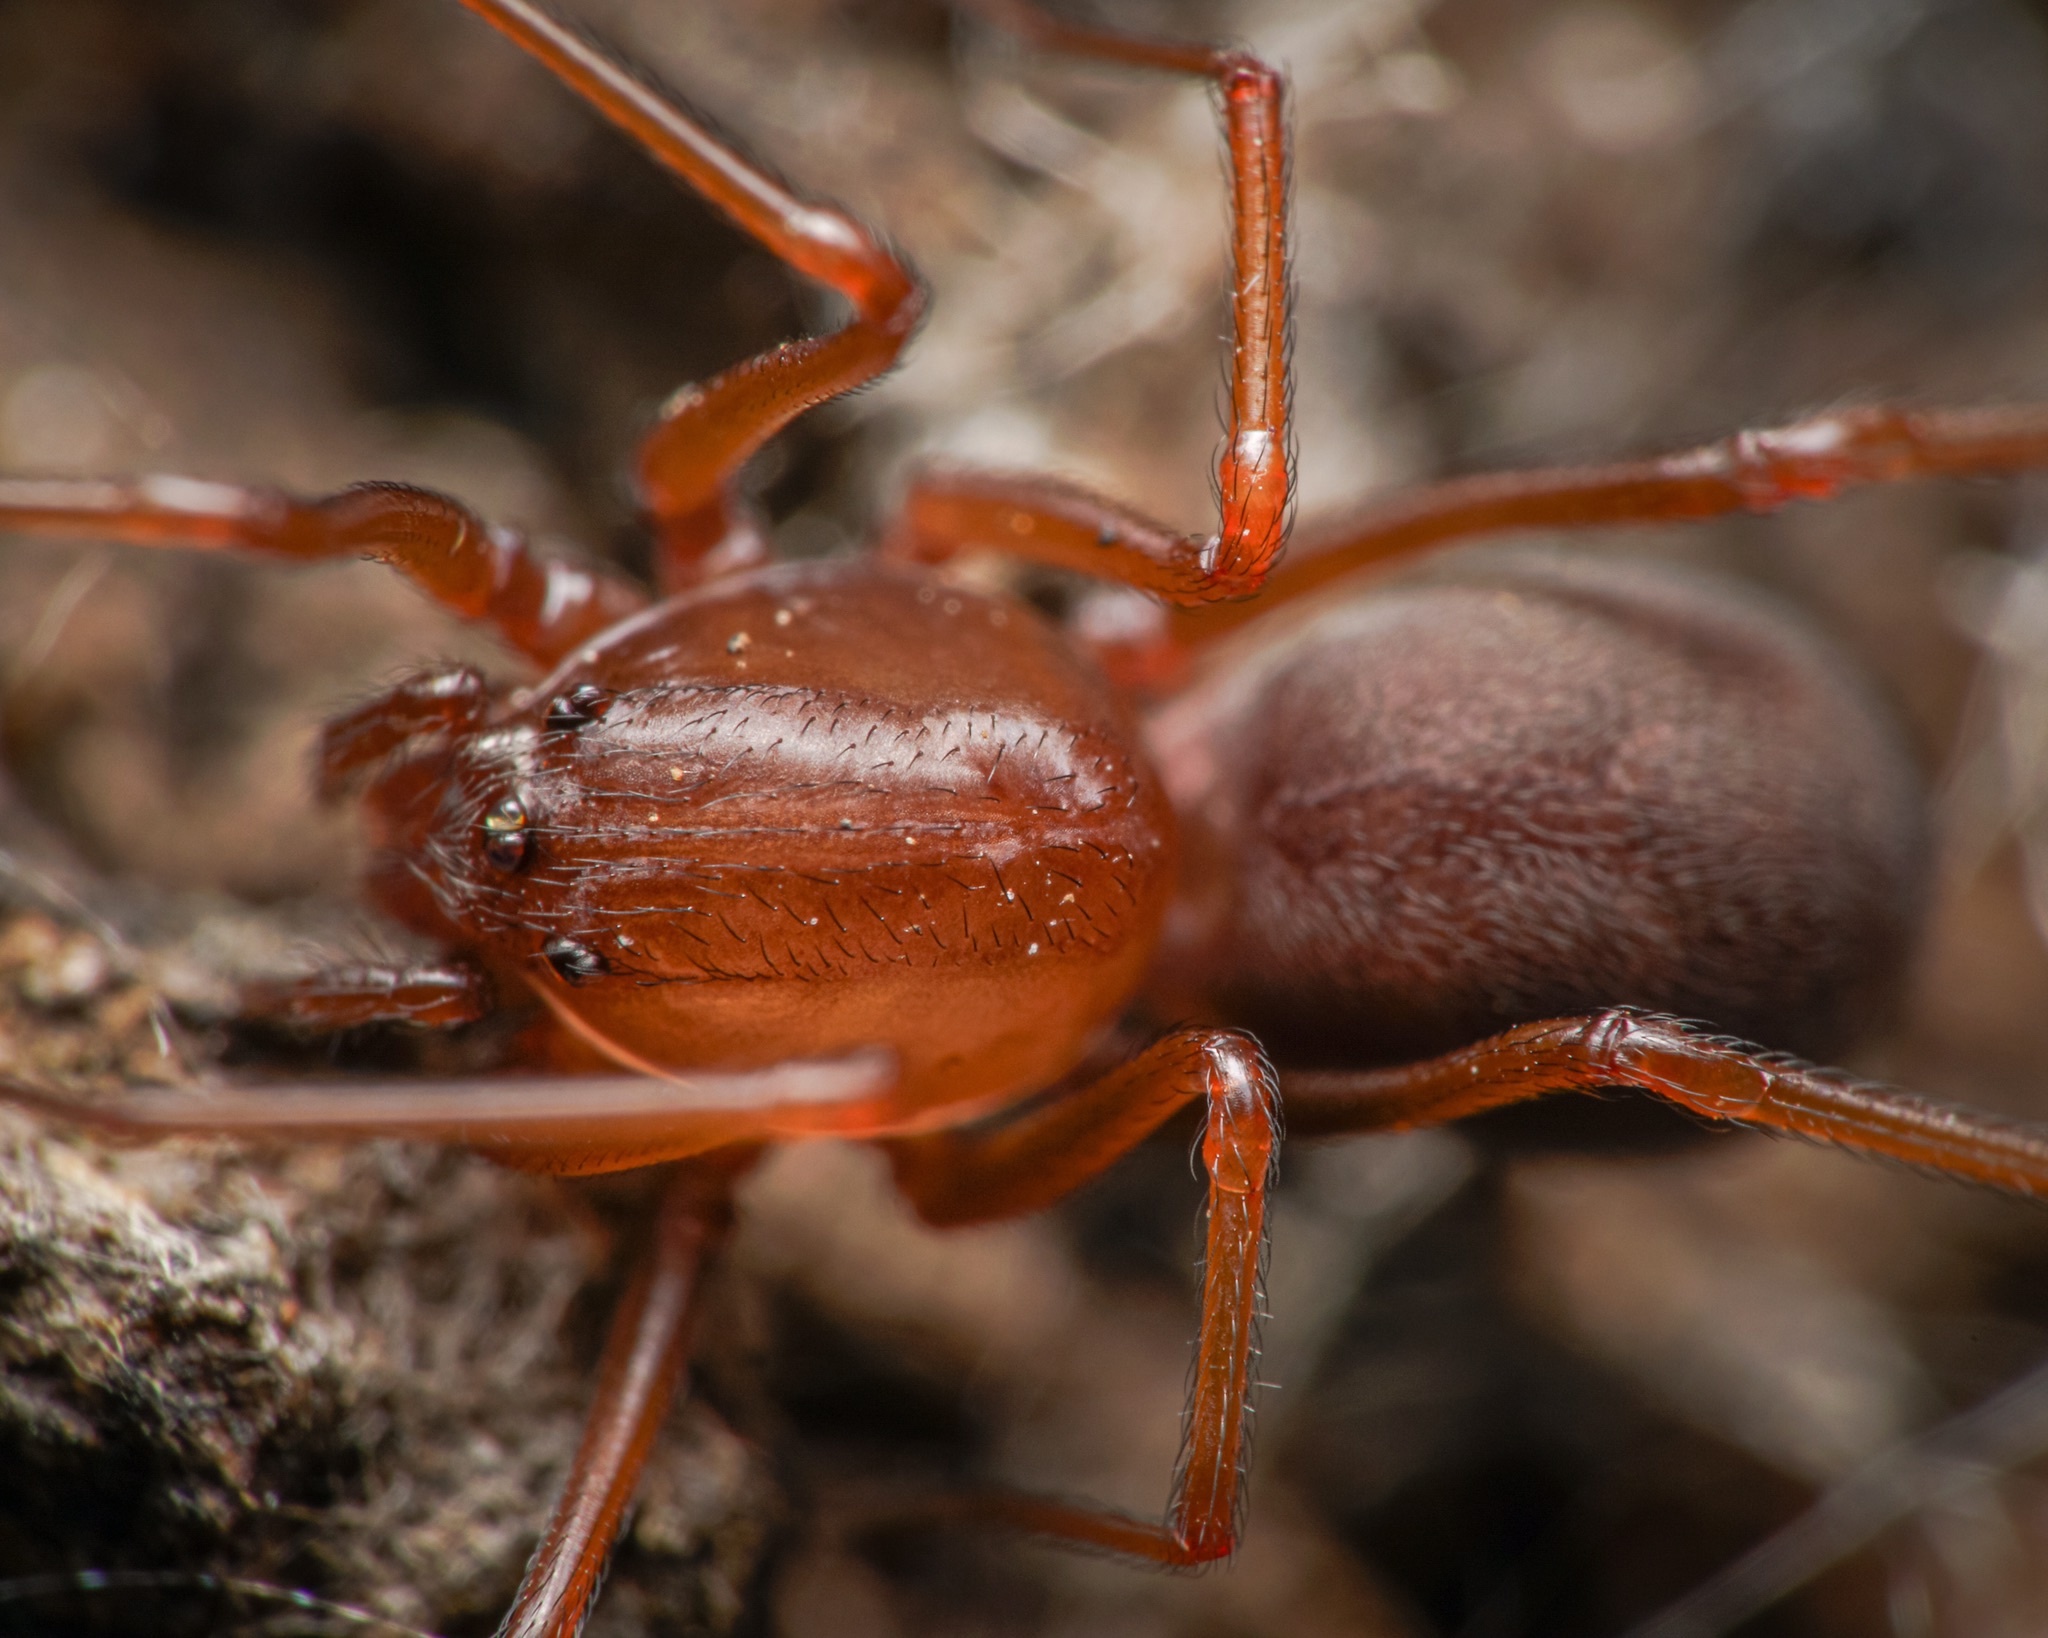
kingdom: Animalia
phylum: Arthropoda
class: Arachnida
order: Araneae
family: Scytodidae
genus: Scytodes
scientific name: Scytodes fusca
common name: Spitting spiders
